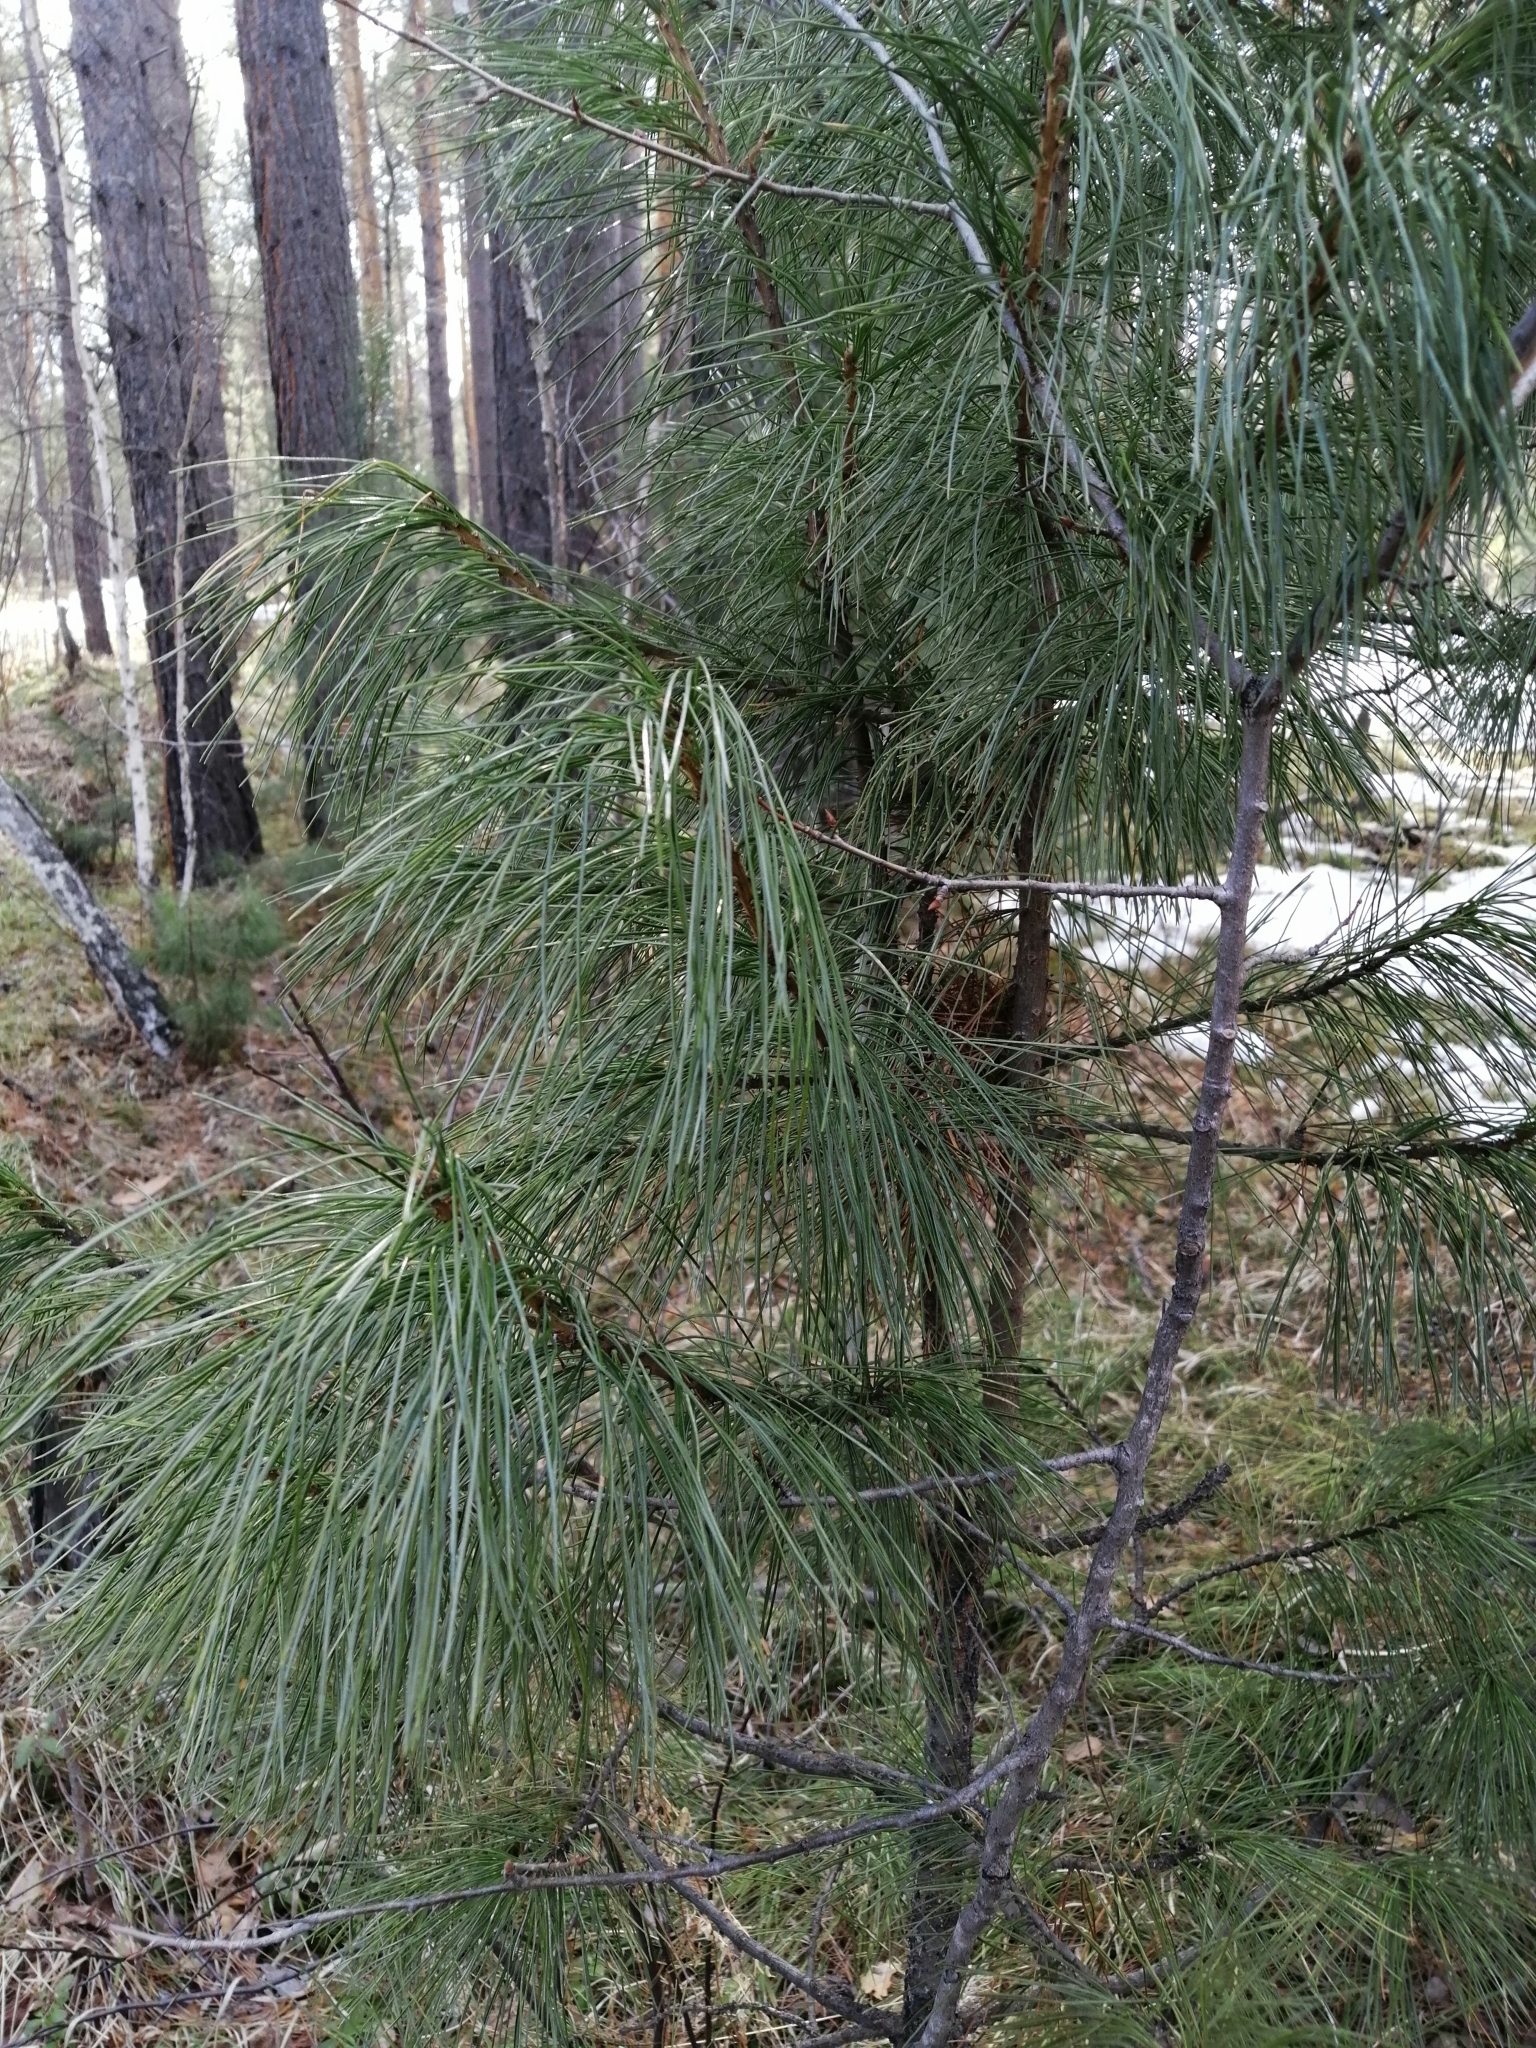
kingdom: Plantae
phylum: Tracheophyta
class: Pinopsida
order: Pinales
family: Pinaceae
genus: Pinus
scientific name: Pinus sibirica
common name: Siberian pine
